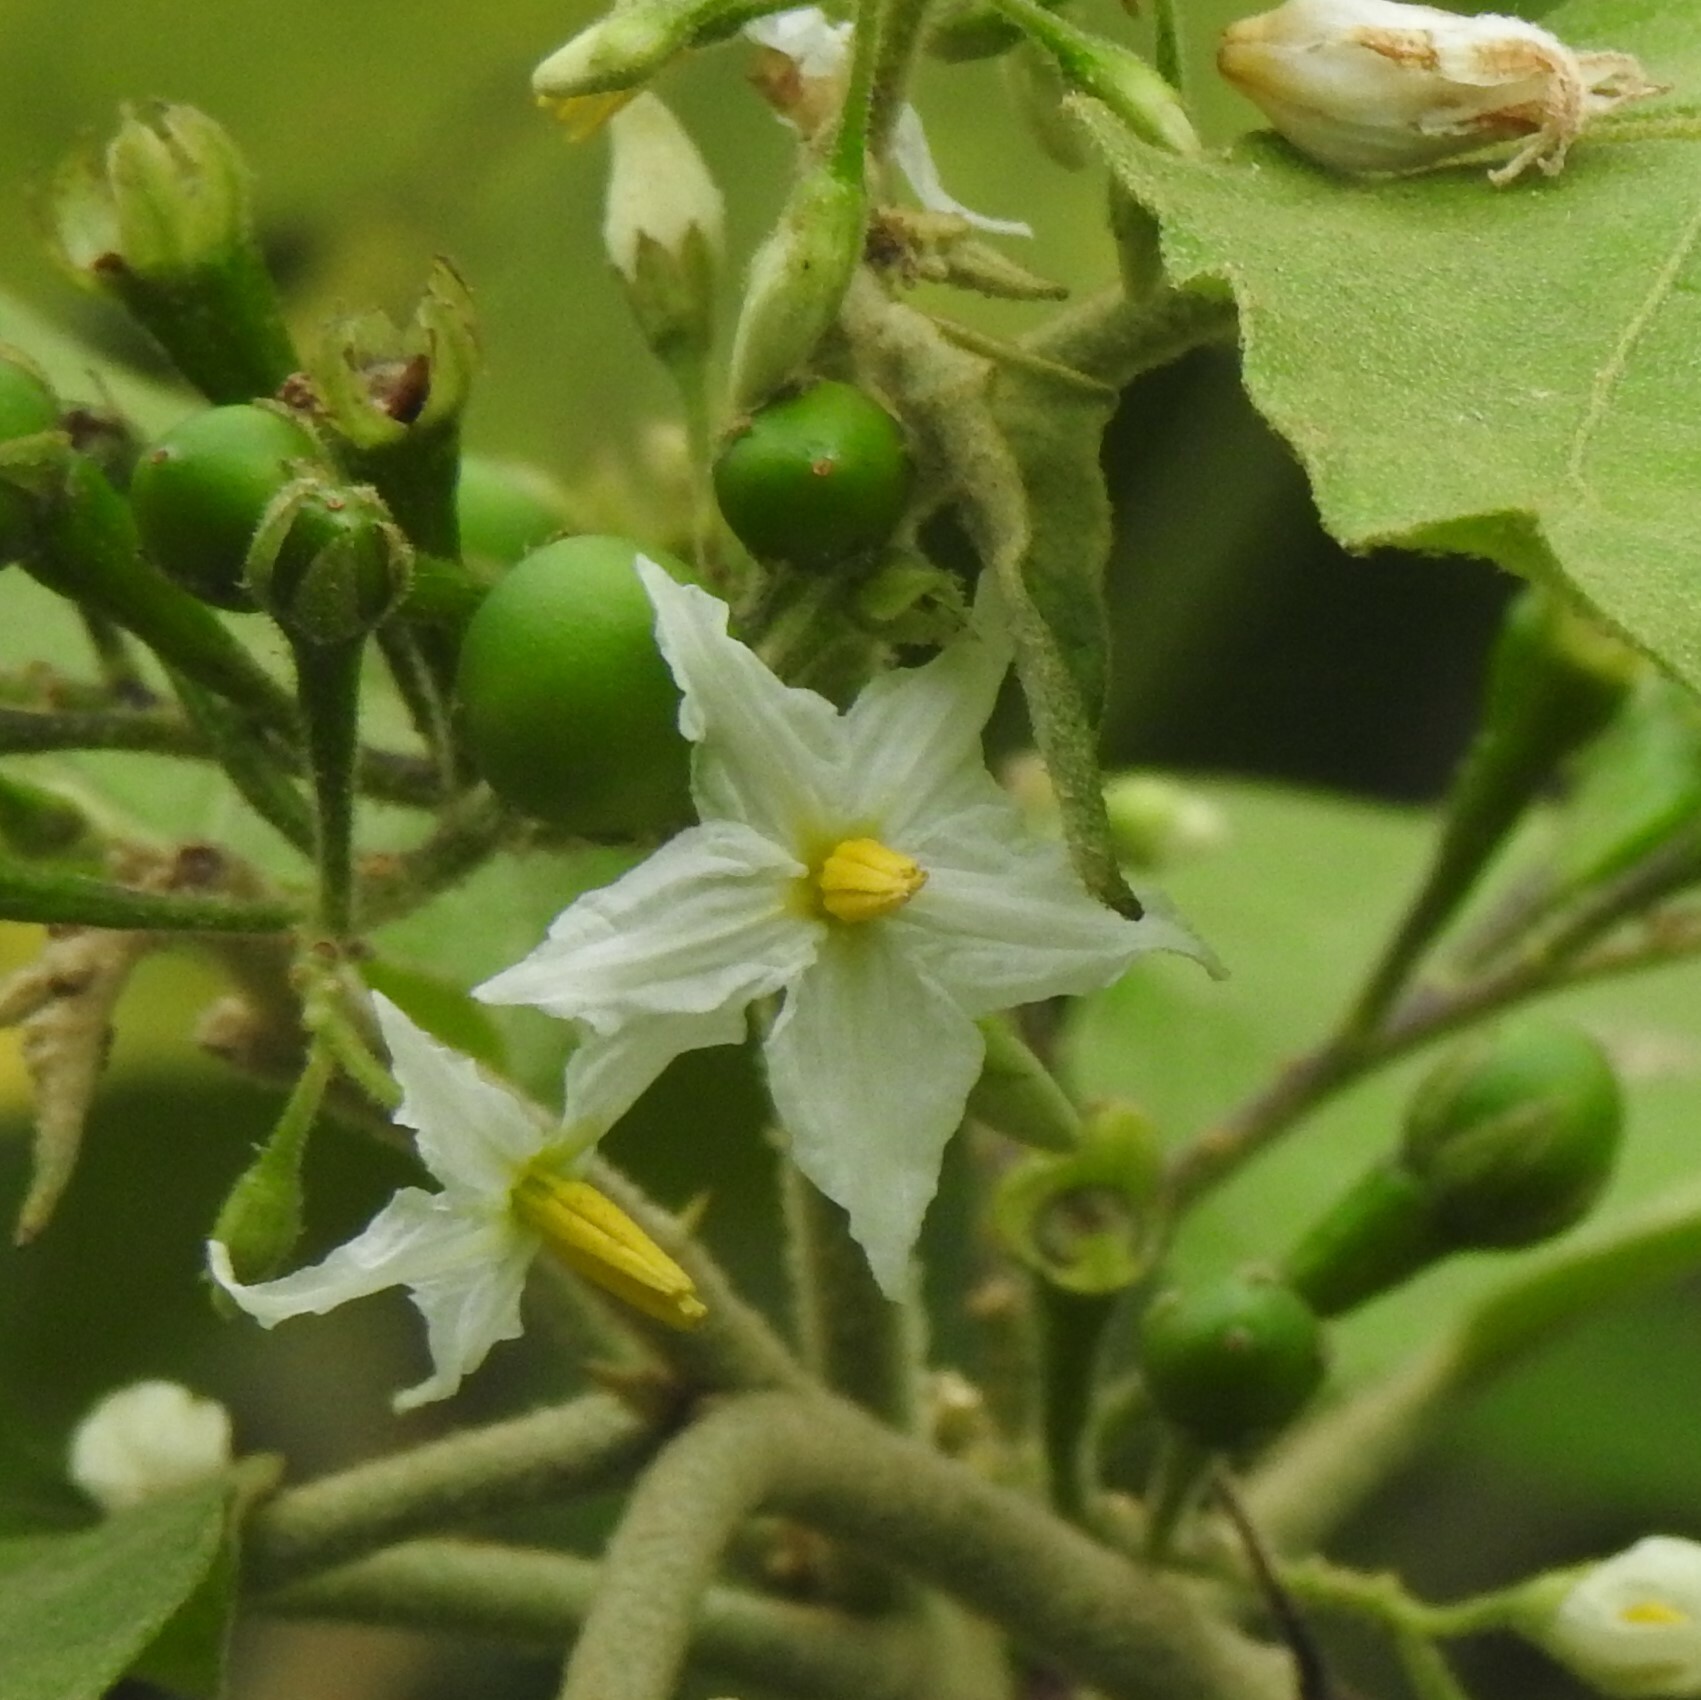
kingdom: Plantae
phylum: Tracheophyta
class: Magnoliopsida
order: Solanales
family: Solanaceae
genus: Solanum
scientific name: Solanum torvum
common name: Turkey berry
